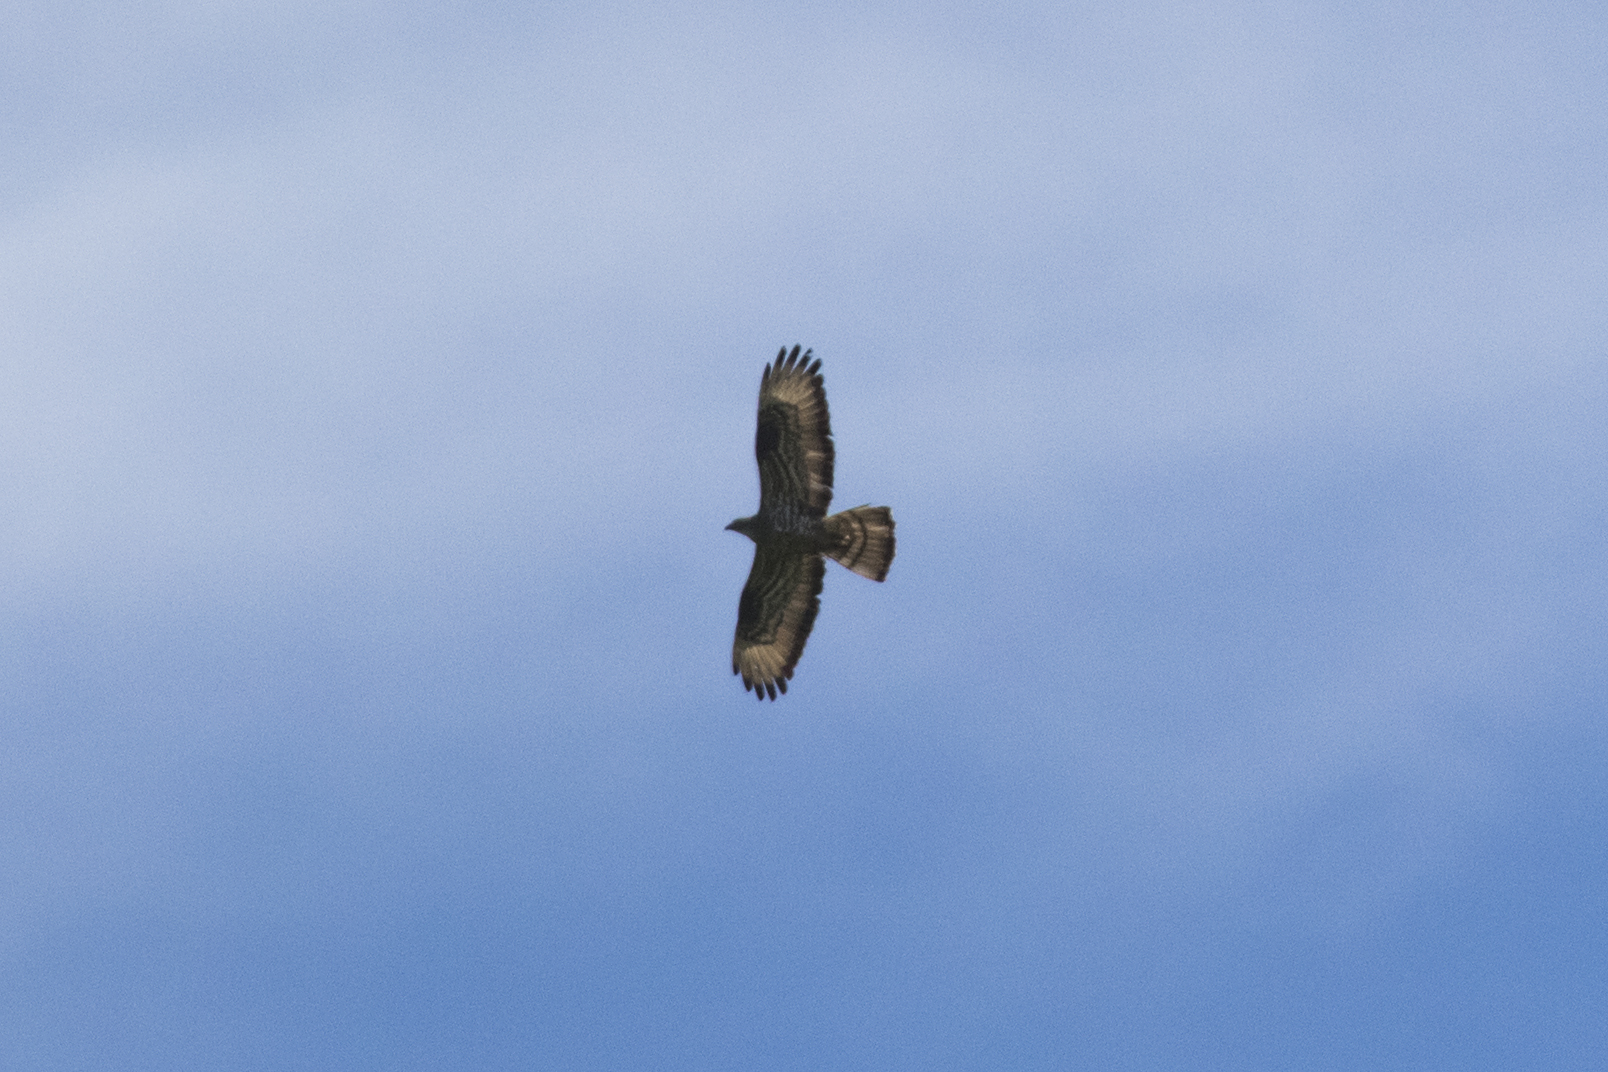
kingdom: Animalia
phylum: Chordata
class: Aves
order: Accipitriformes
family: Accipitridae
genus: Pernis
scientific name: Pernis apivorus
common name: European honey buzzard
